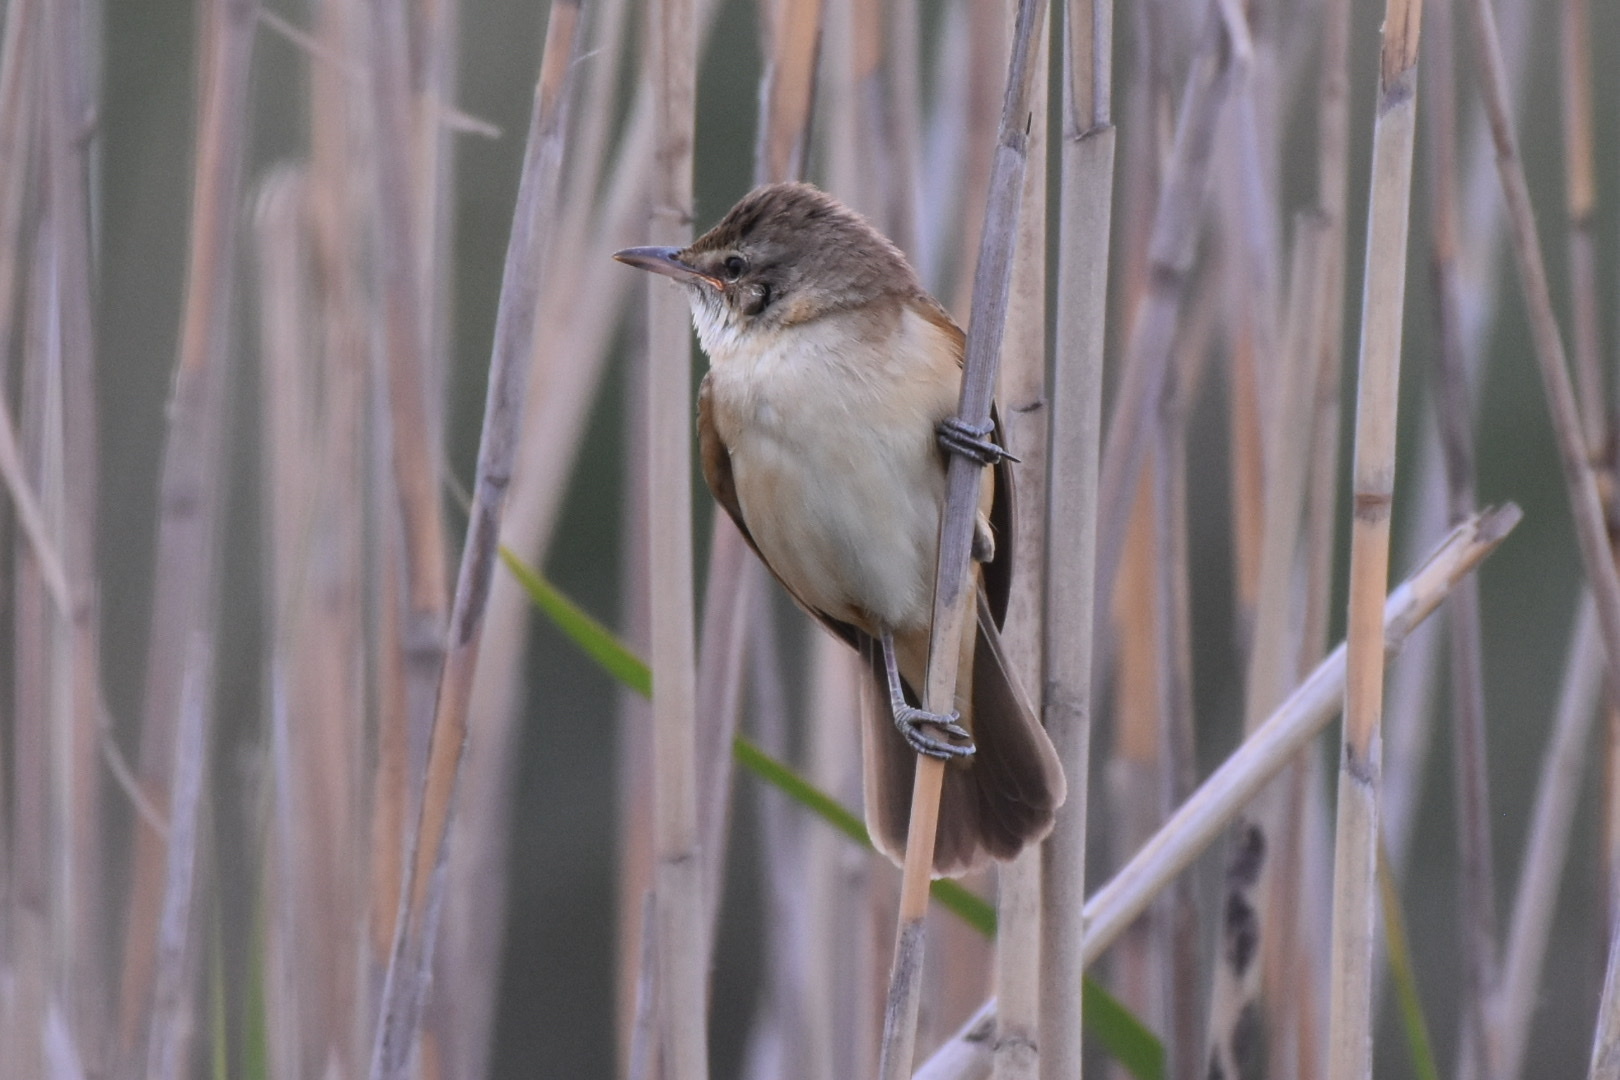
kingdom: Animalia
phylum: Chordata
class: Aves
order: Passeriformes
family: Acrocephalidae
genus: Acrocephalus
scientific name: Acrocephalus arundinaceus
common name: Great reed warbler
